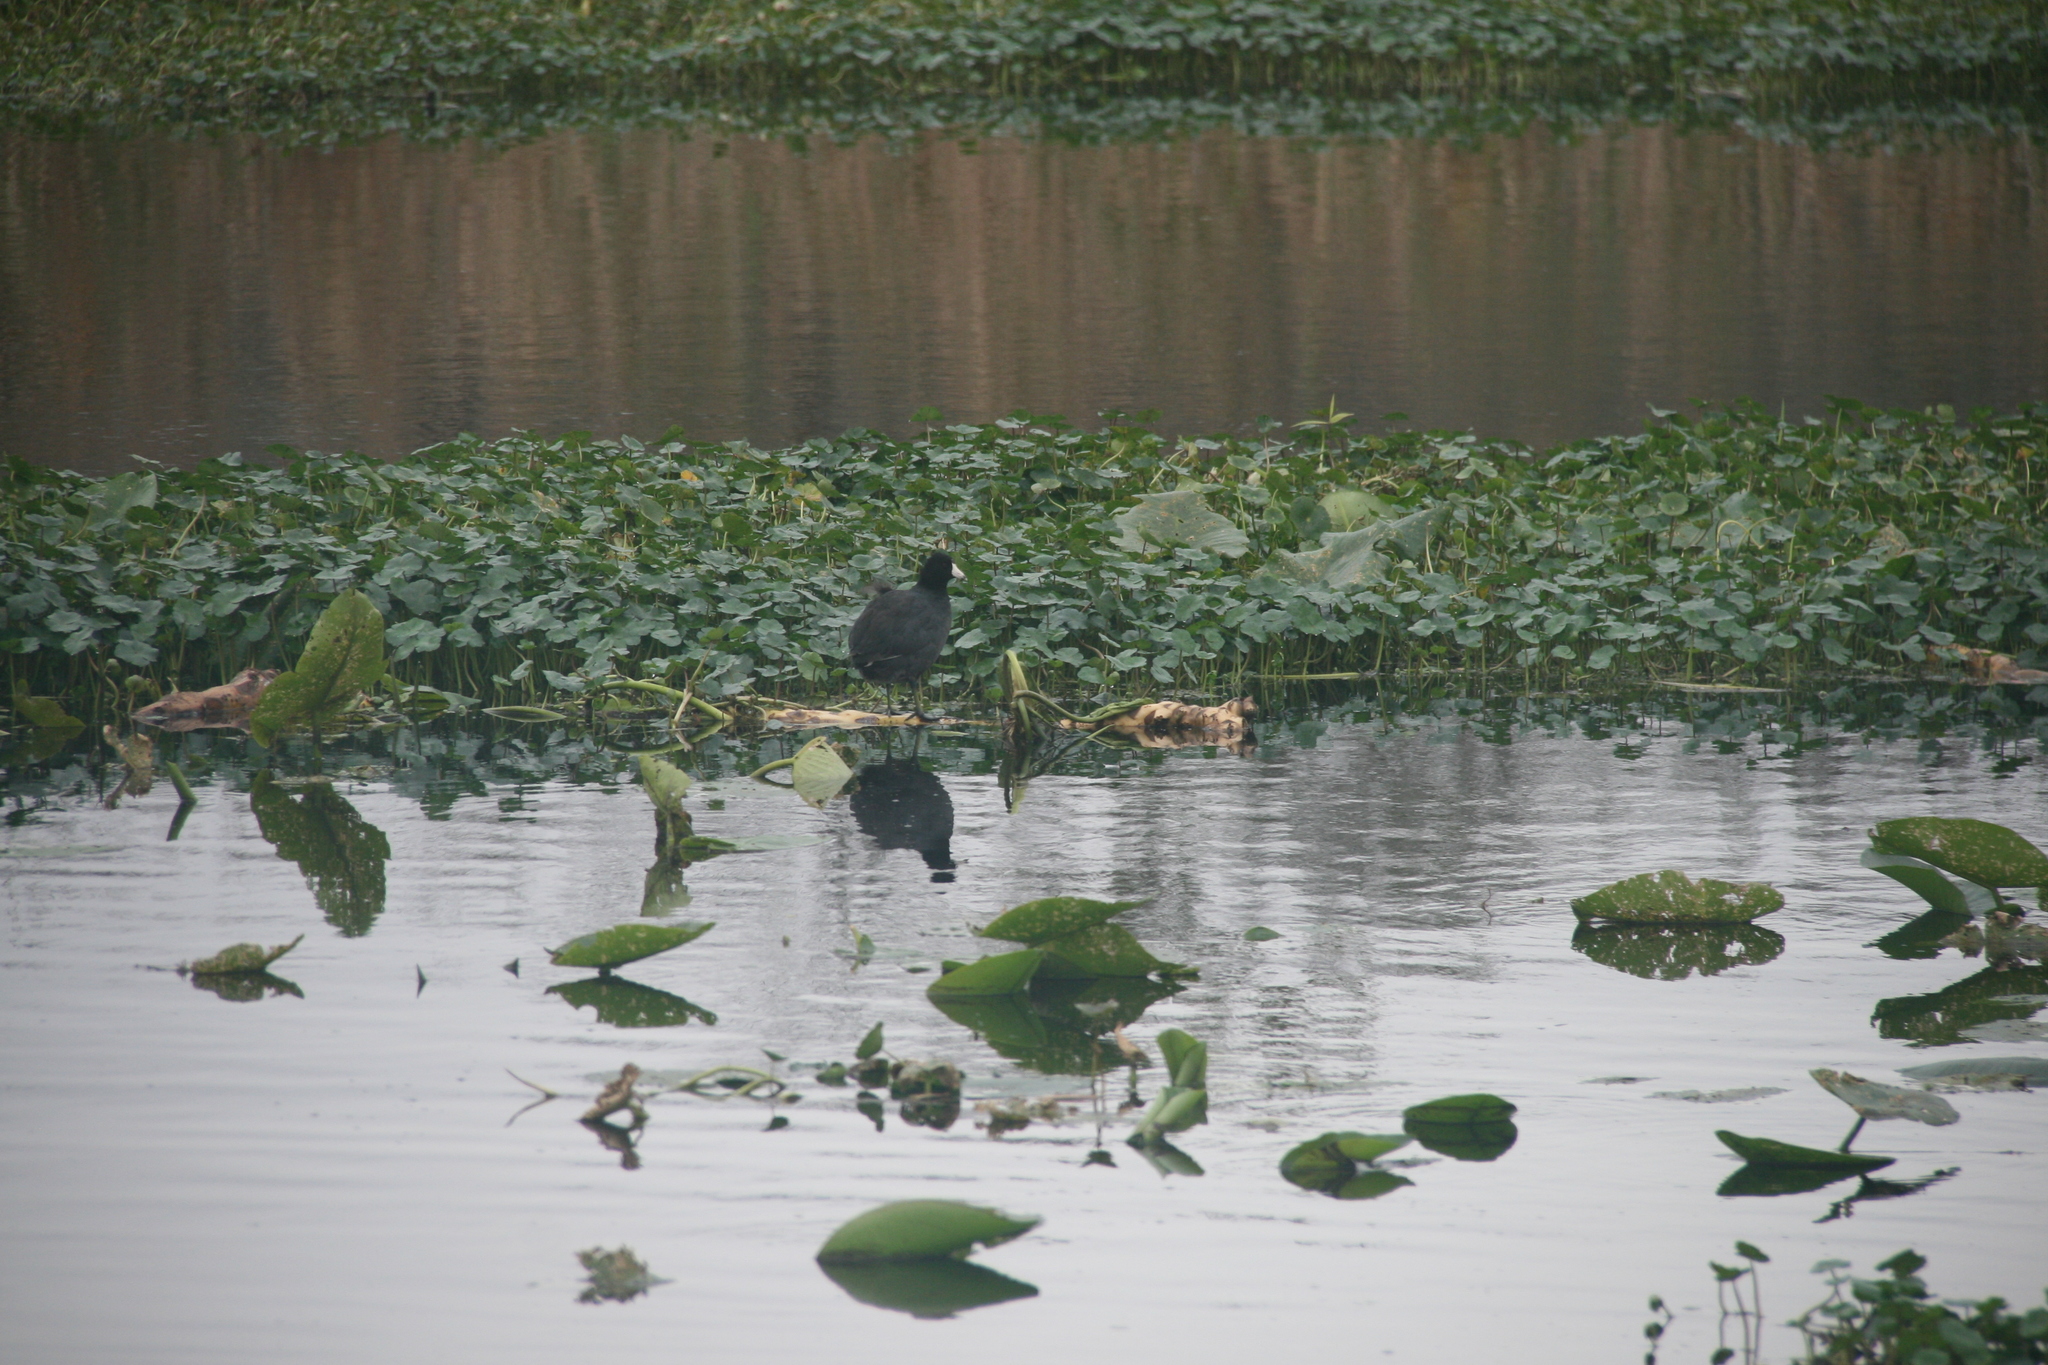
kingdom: Animalia
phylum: Chordata
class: Aves
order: Gruiformes
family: Rallidae
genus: Fulica
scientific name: Fulica americana
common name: American coot
